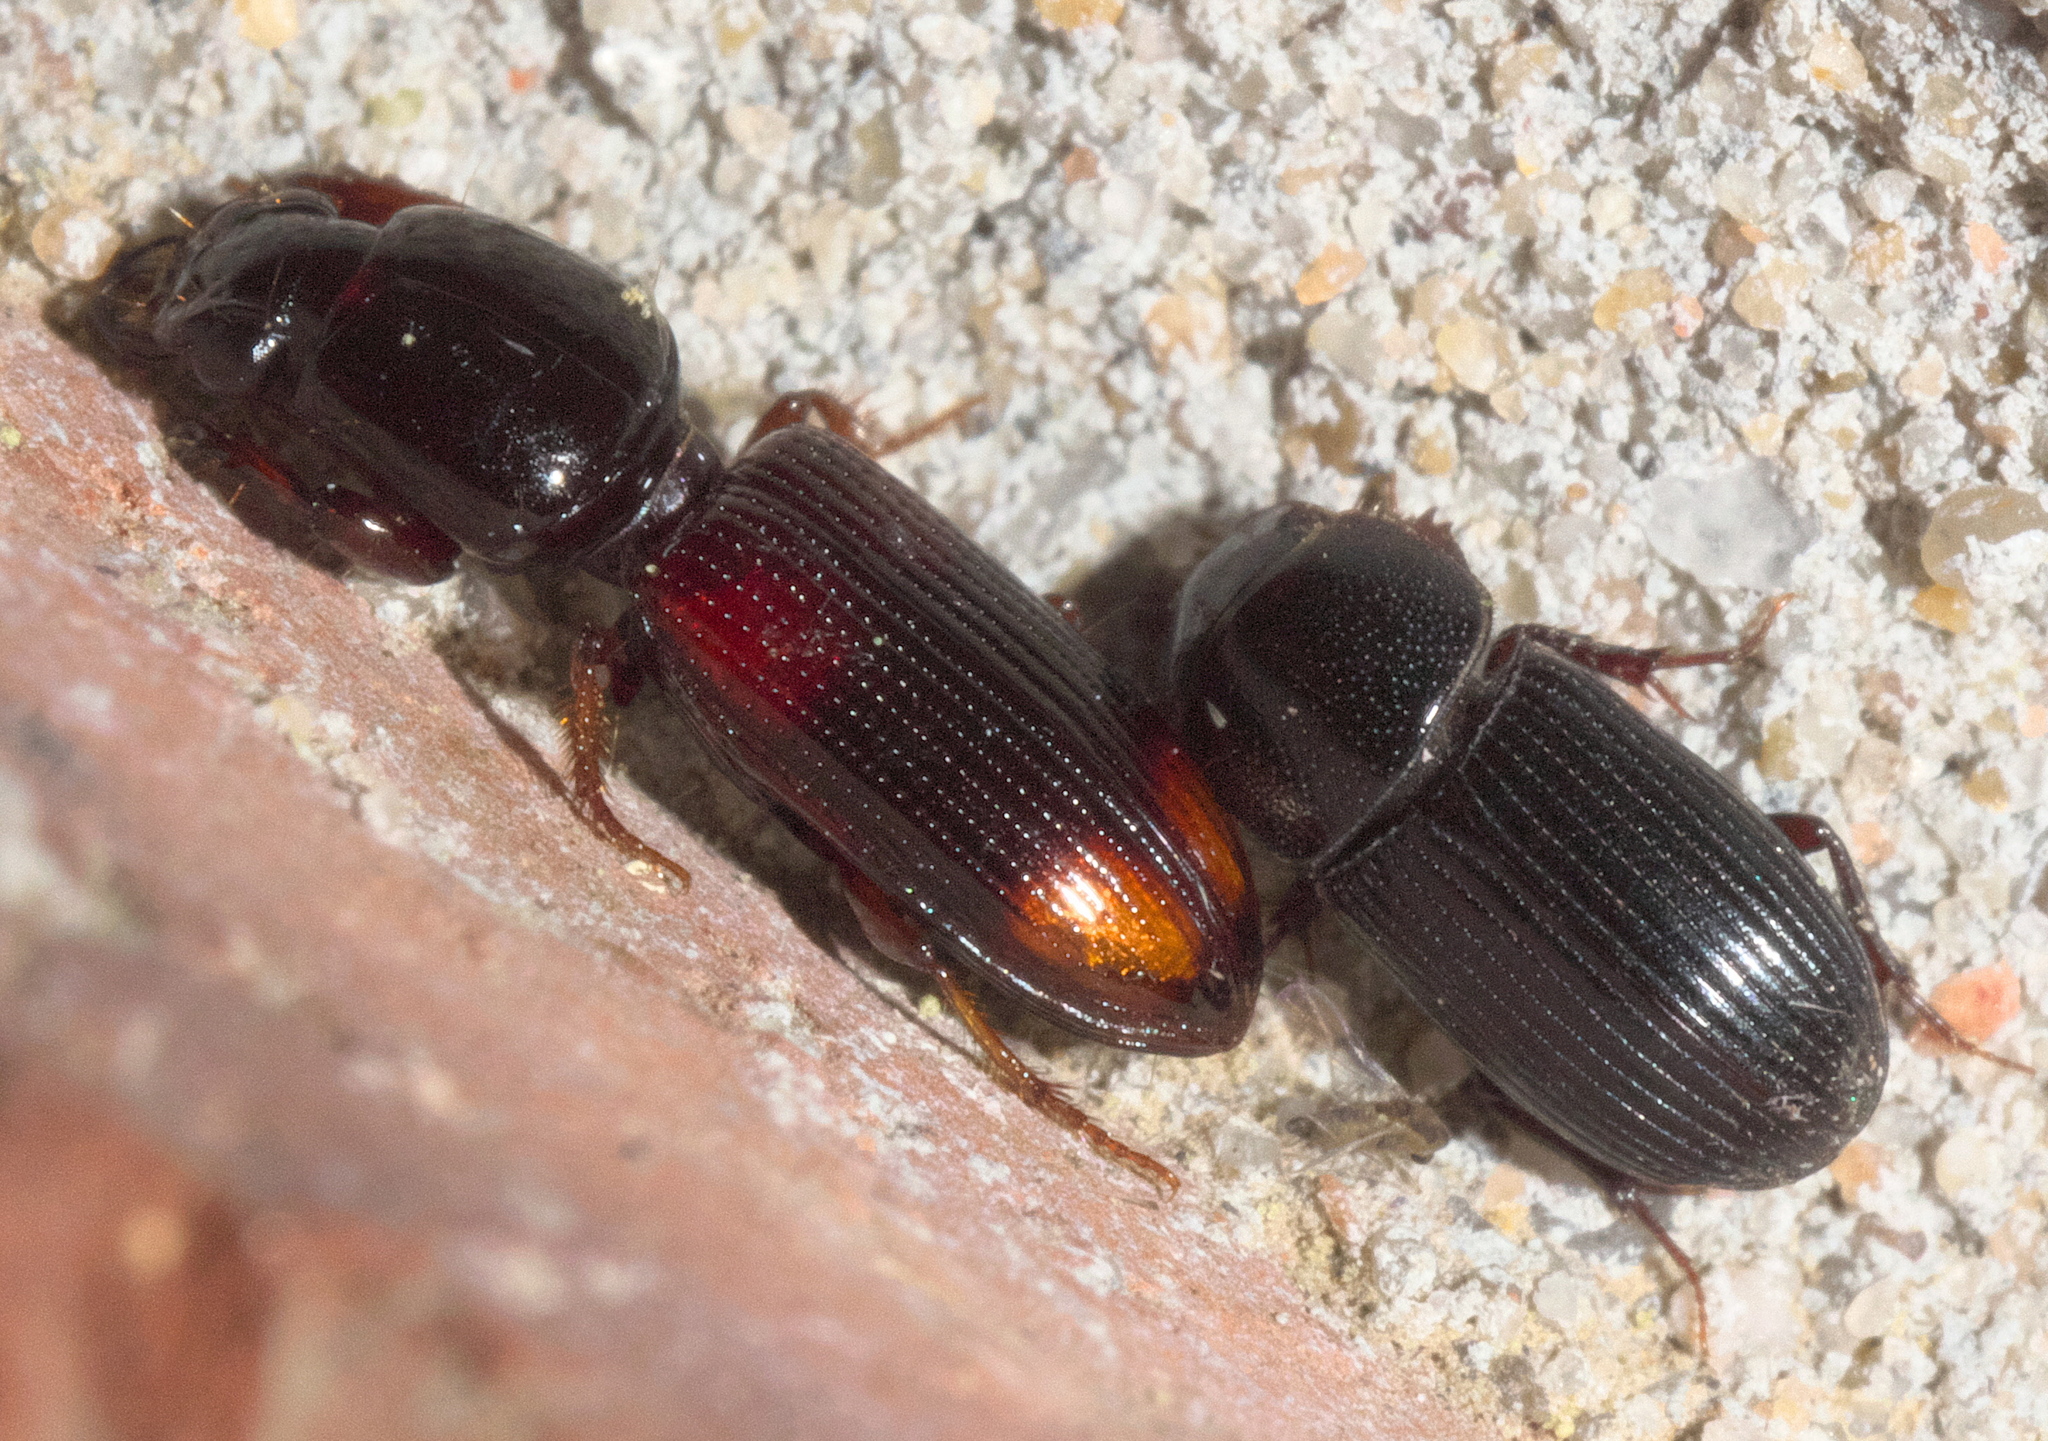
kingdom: Animalia
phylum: Arthropoda
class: Insecta
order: Coleoptera
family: Carabidae
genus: Clivina
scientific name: Clivina bipustulata
